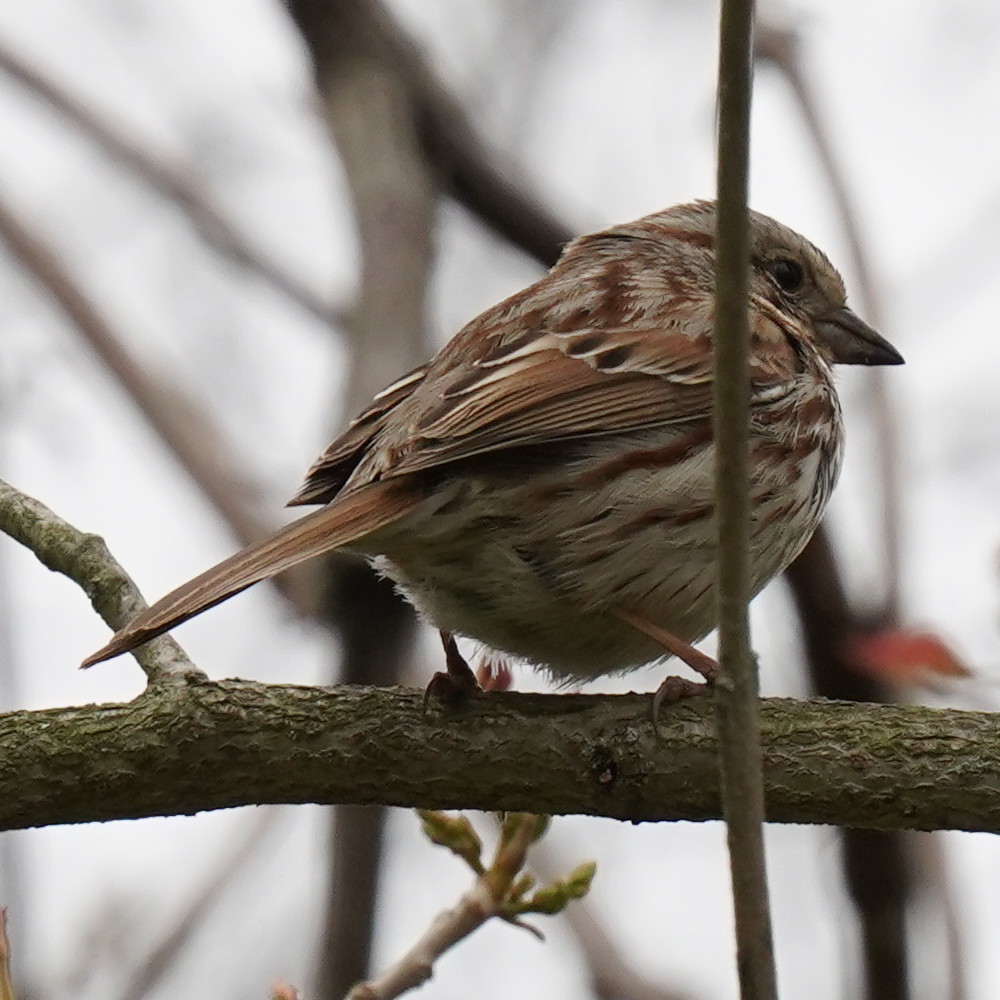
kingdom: Animalia
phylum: Chordata
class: Aves
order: Passeriformes
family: Passerellidae
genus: Melospiza
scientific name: Melospiza melodia
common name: Song sparrow
